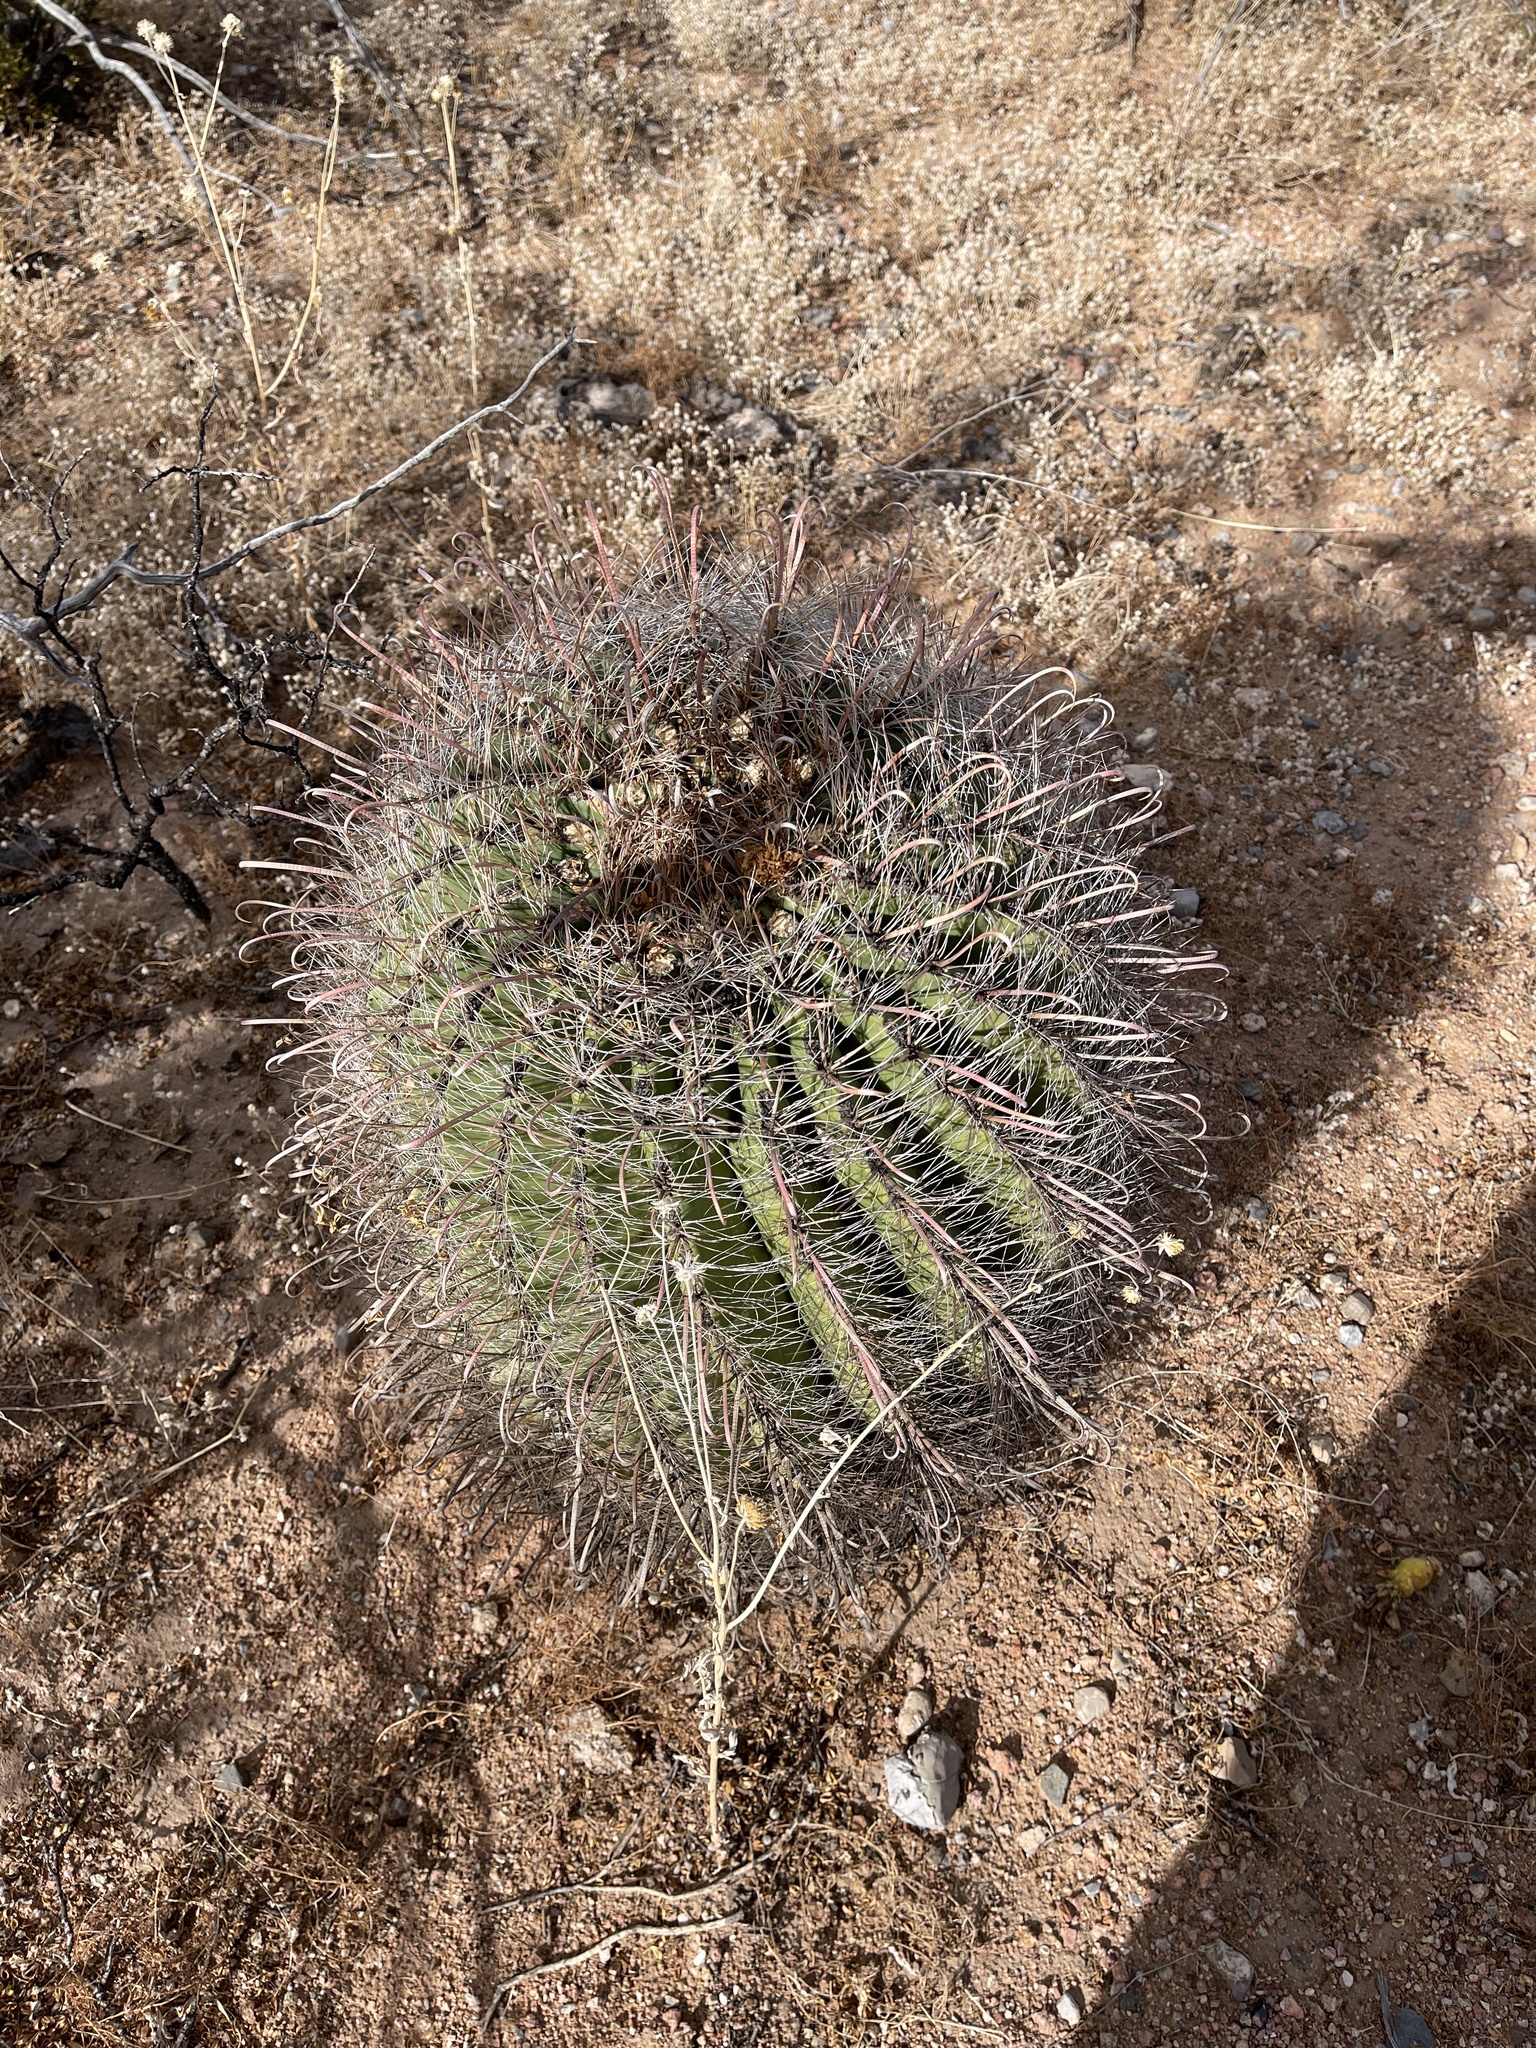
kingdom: Plantae
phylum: Tracheophyta
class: Magnoliopsida
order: Caryophyllales
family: Cactaceae
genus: Ferocactus
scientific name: Ferocactus wislizeni
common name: Candy barrel cactus
